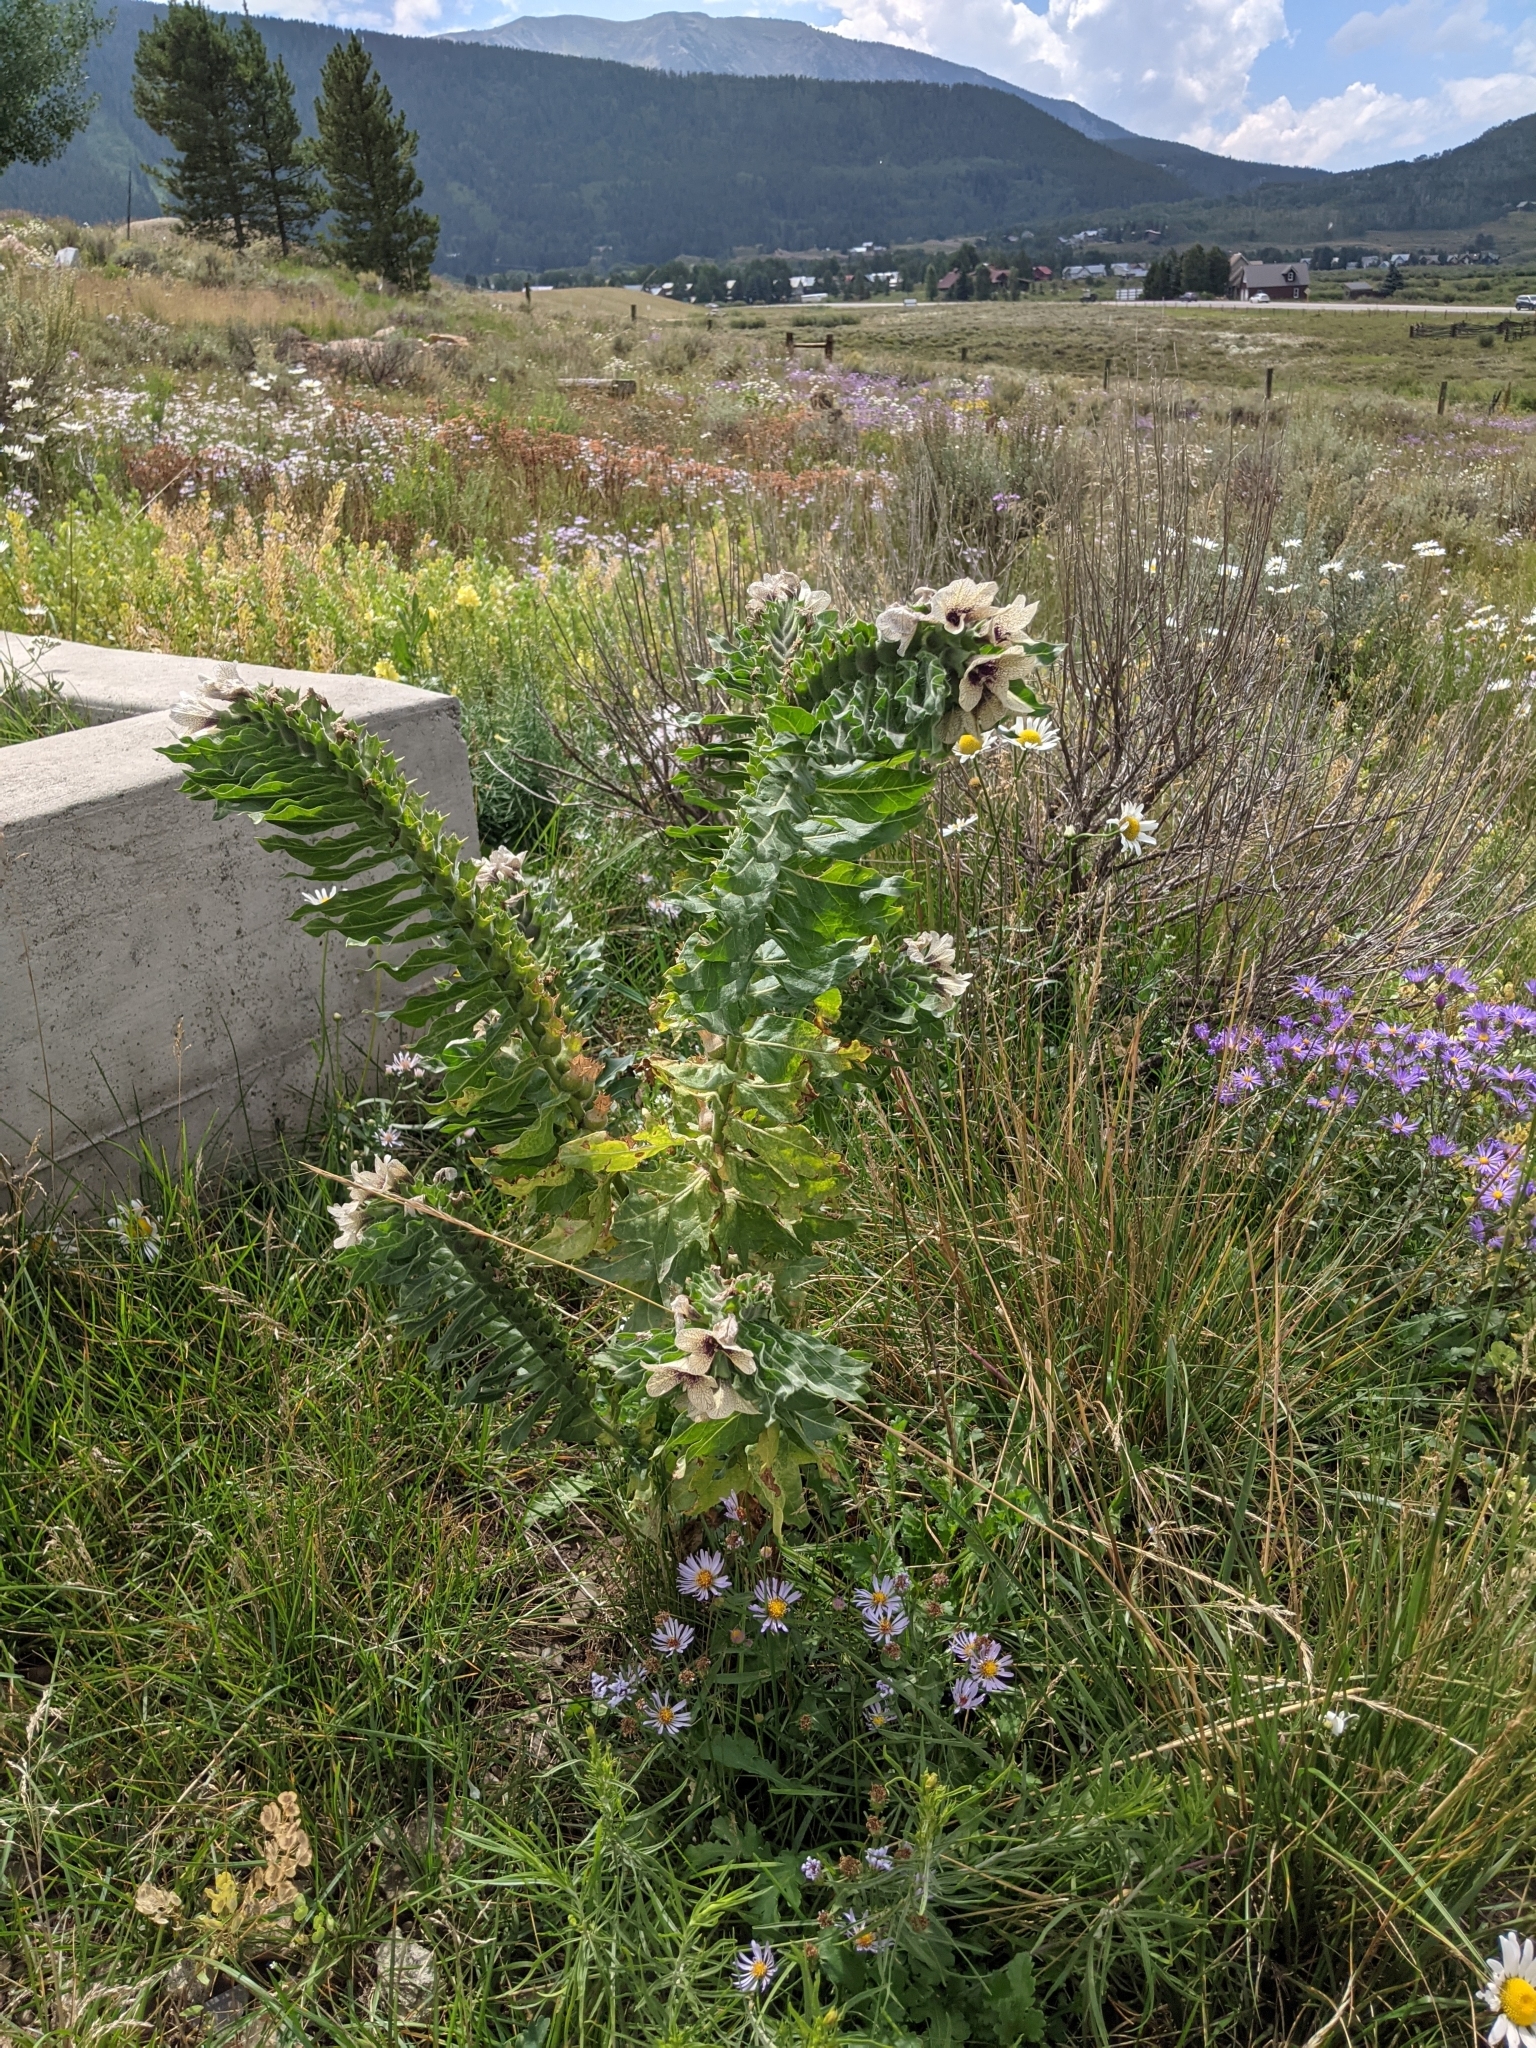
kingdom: Plantae
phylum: Tracheophyta
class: Magnoliopsida
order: Solanales
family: Solanaceae
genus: Hyoscyamus
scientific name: Hyoscyamus niger
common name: Henbane
